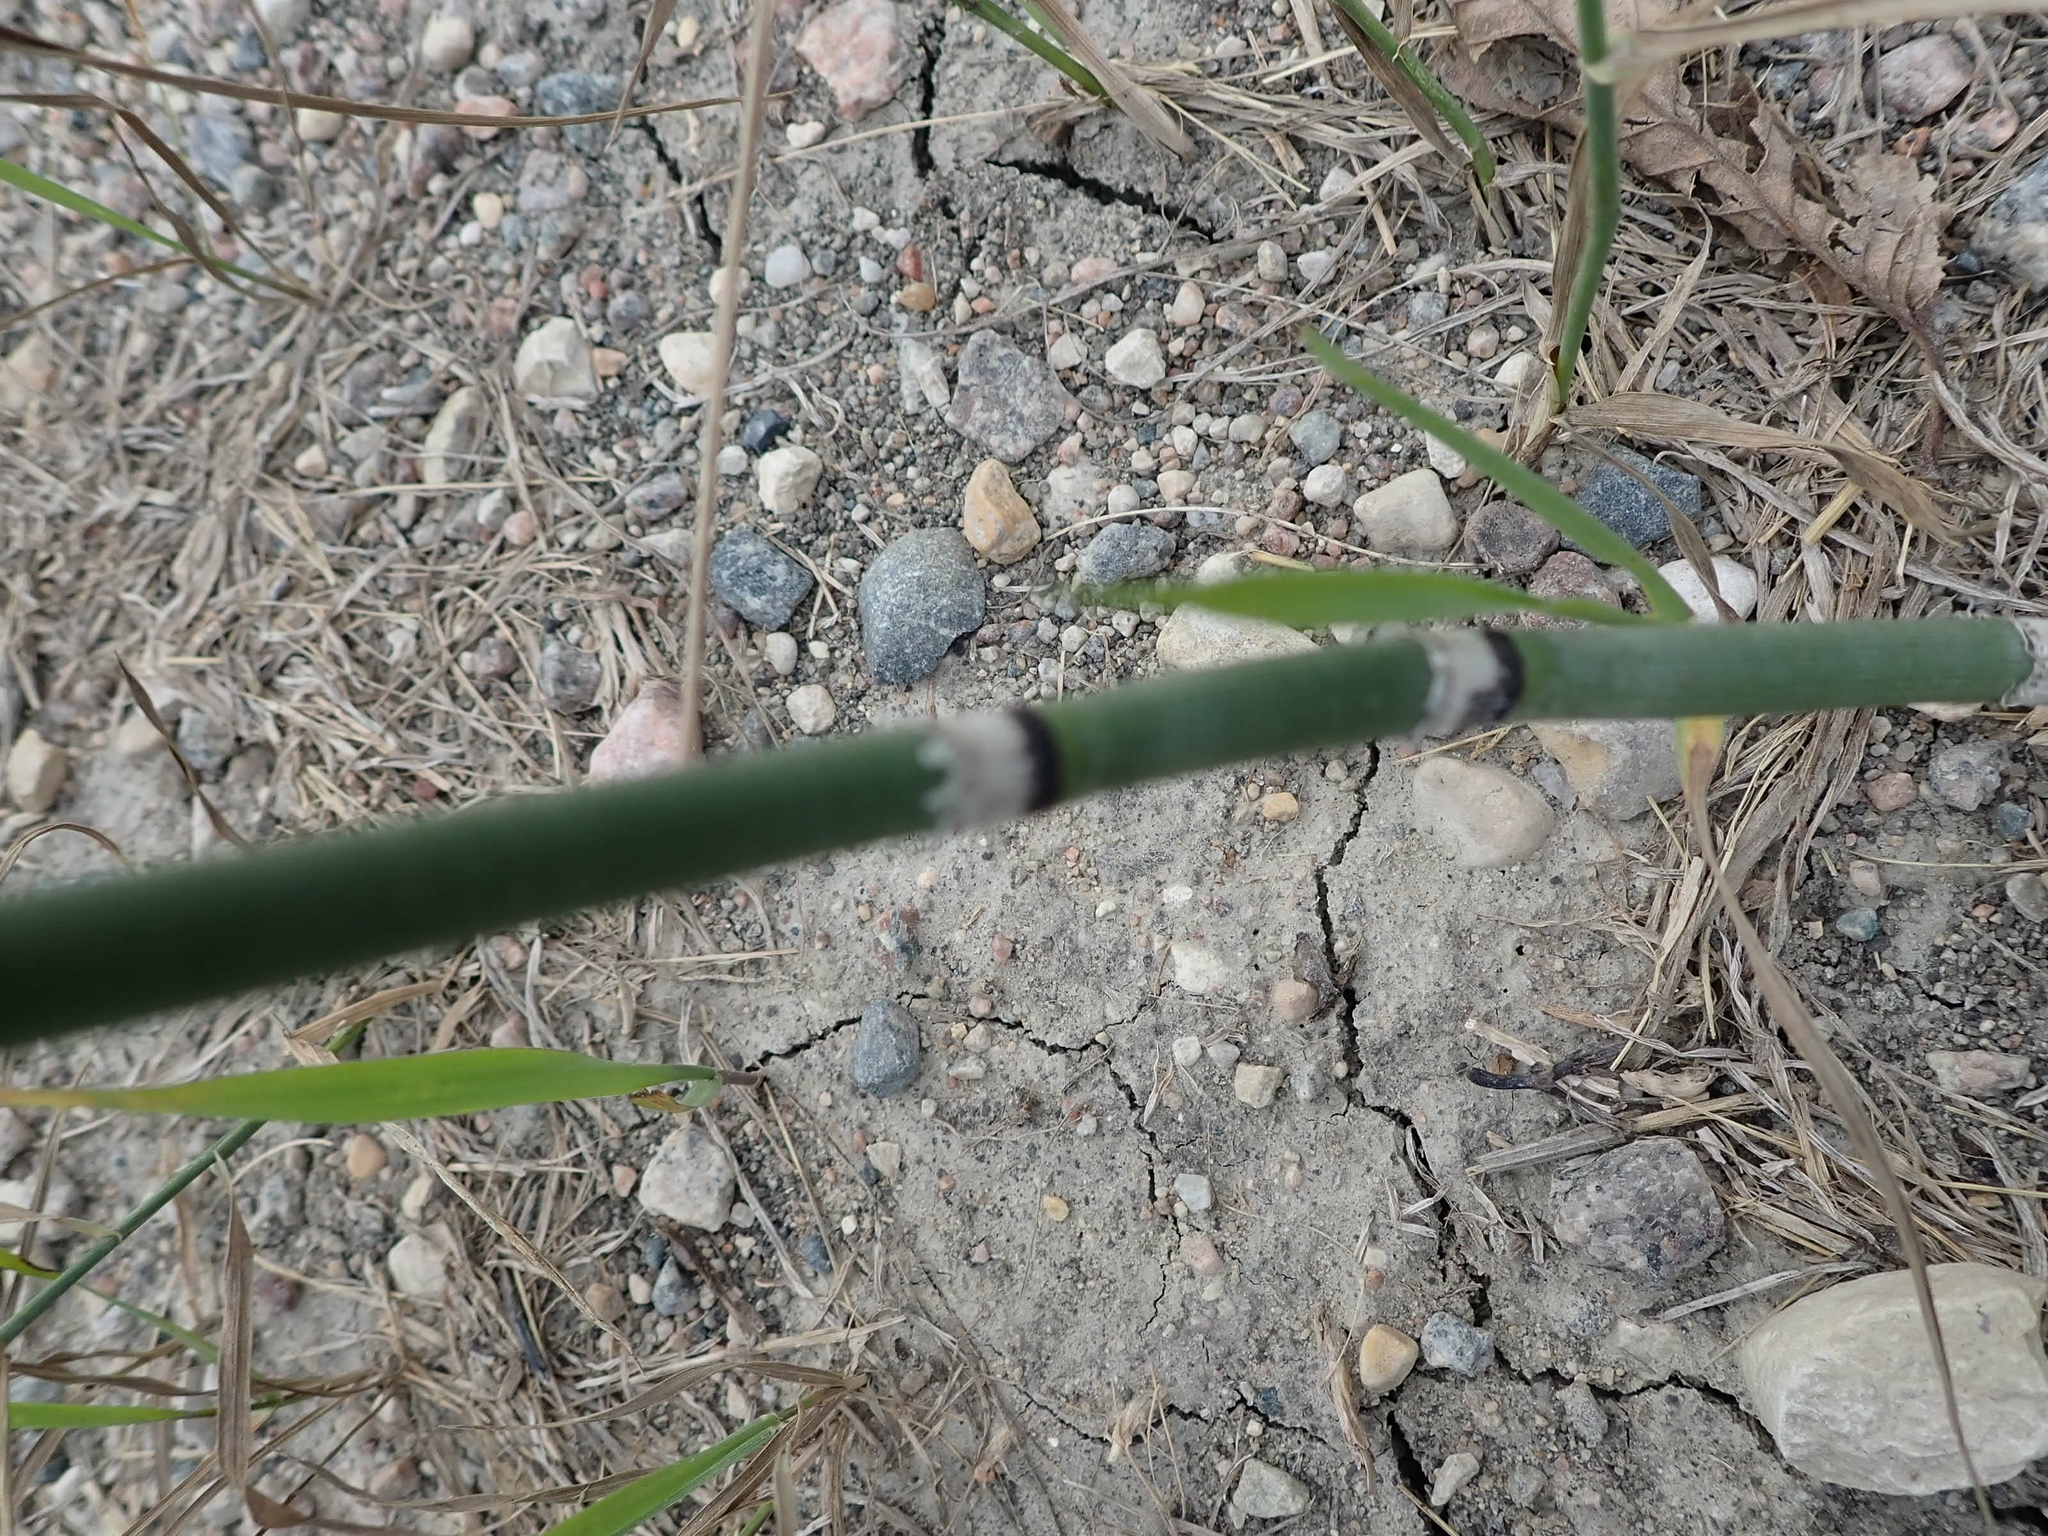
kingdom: Plantae
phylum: Tracheophyta
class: Polypodiopsida
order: Equisetales
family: Equisetaceae
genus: Equisetum
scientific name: Equisetum praealtum
